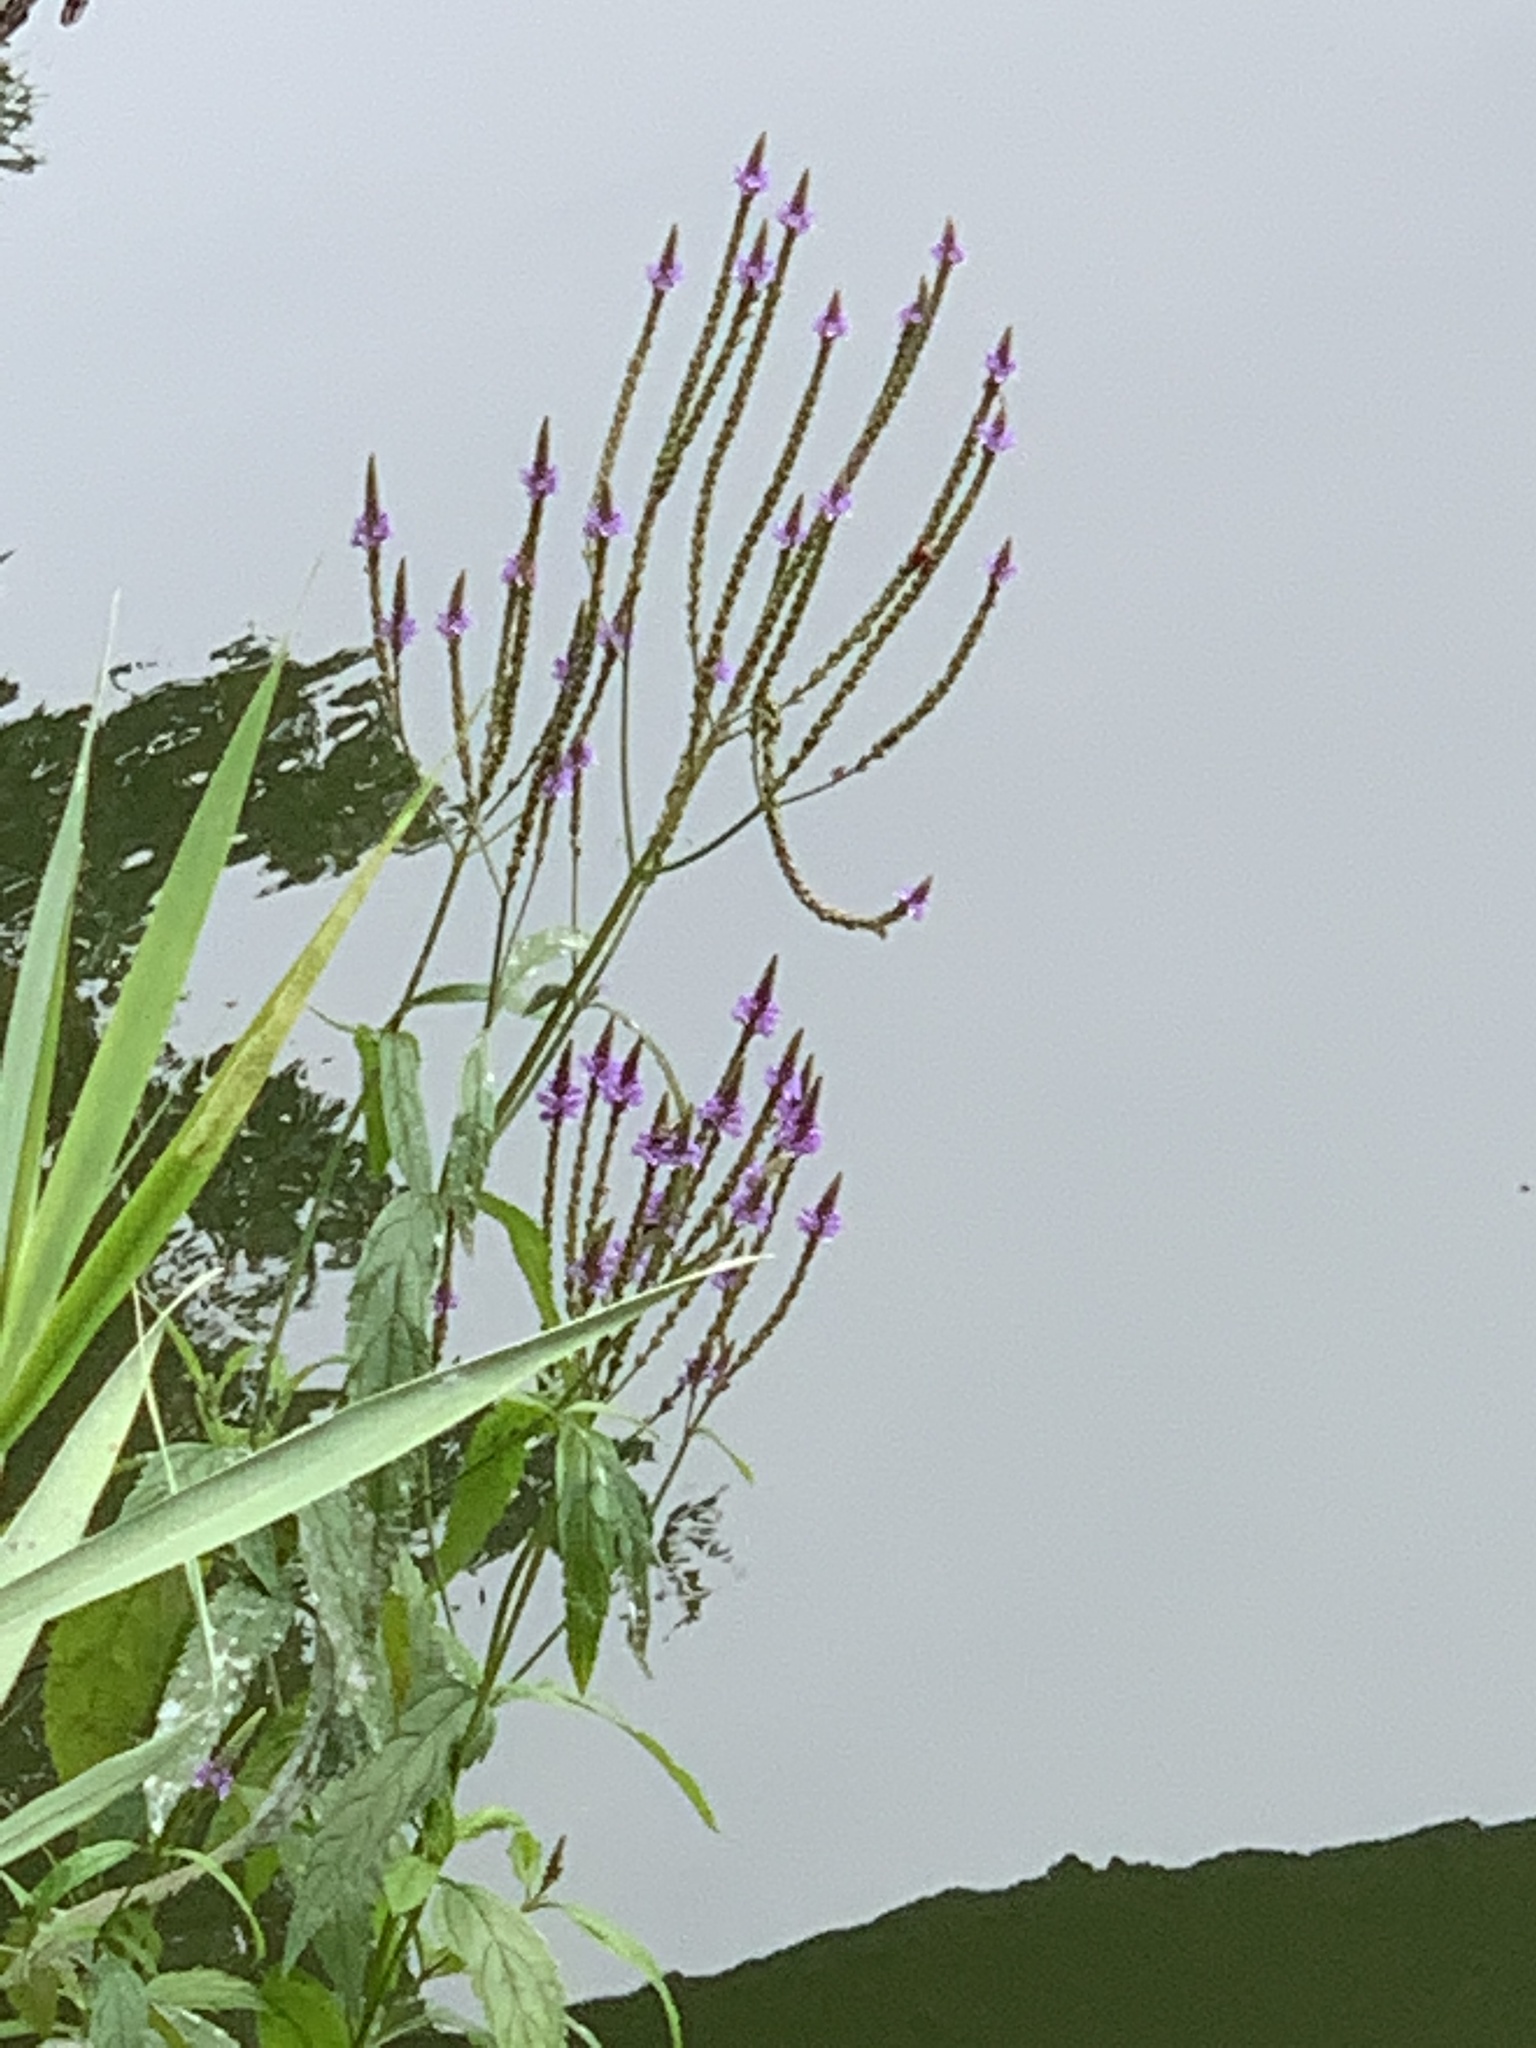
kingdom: Plantae
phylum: Tracheophyta
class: Magnoliopsida
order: Lamiales
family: Verbenaceae
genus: Verbena
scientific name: Verbena hastata
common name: American blue vervain
